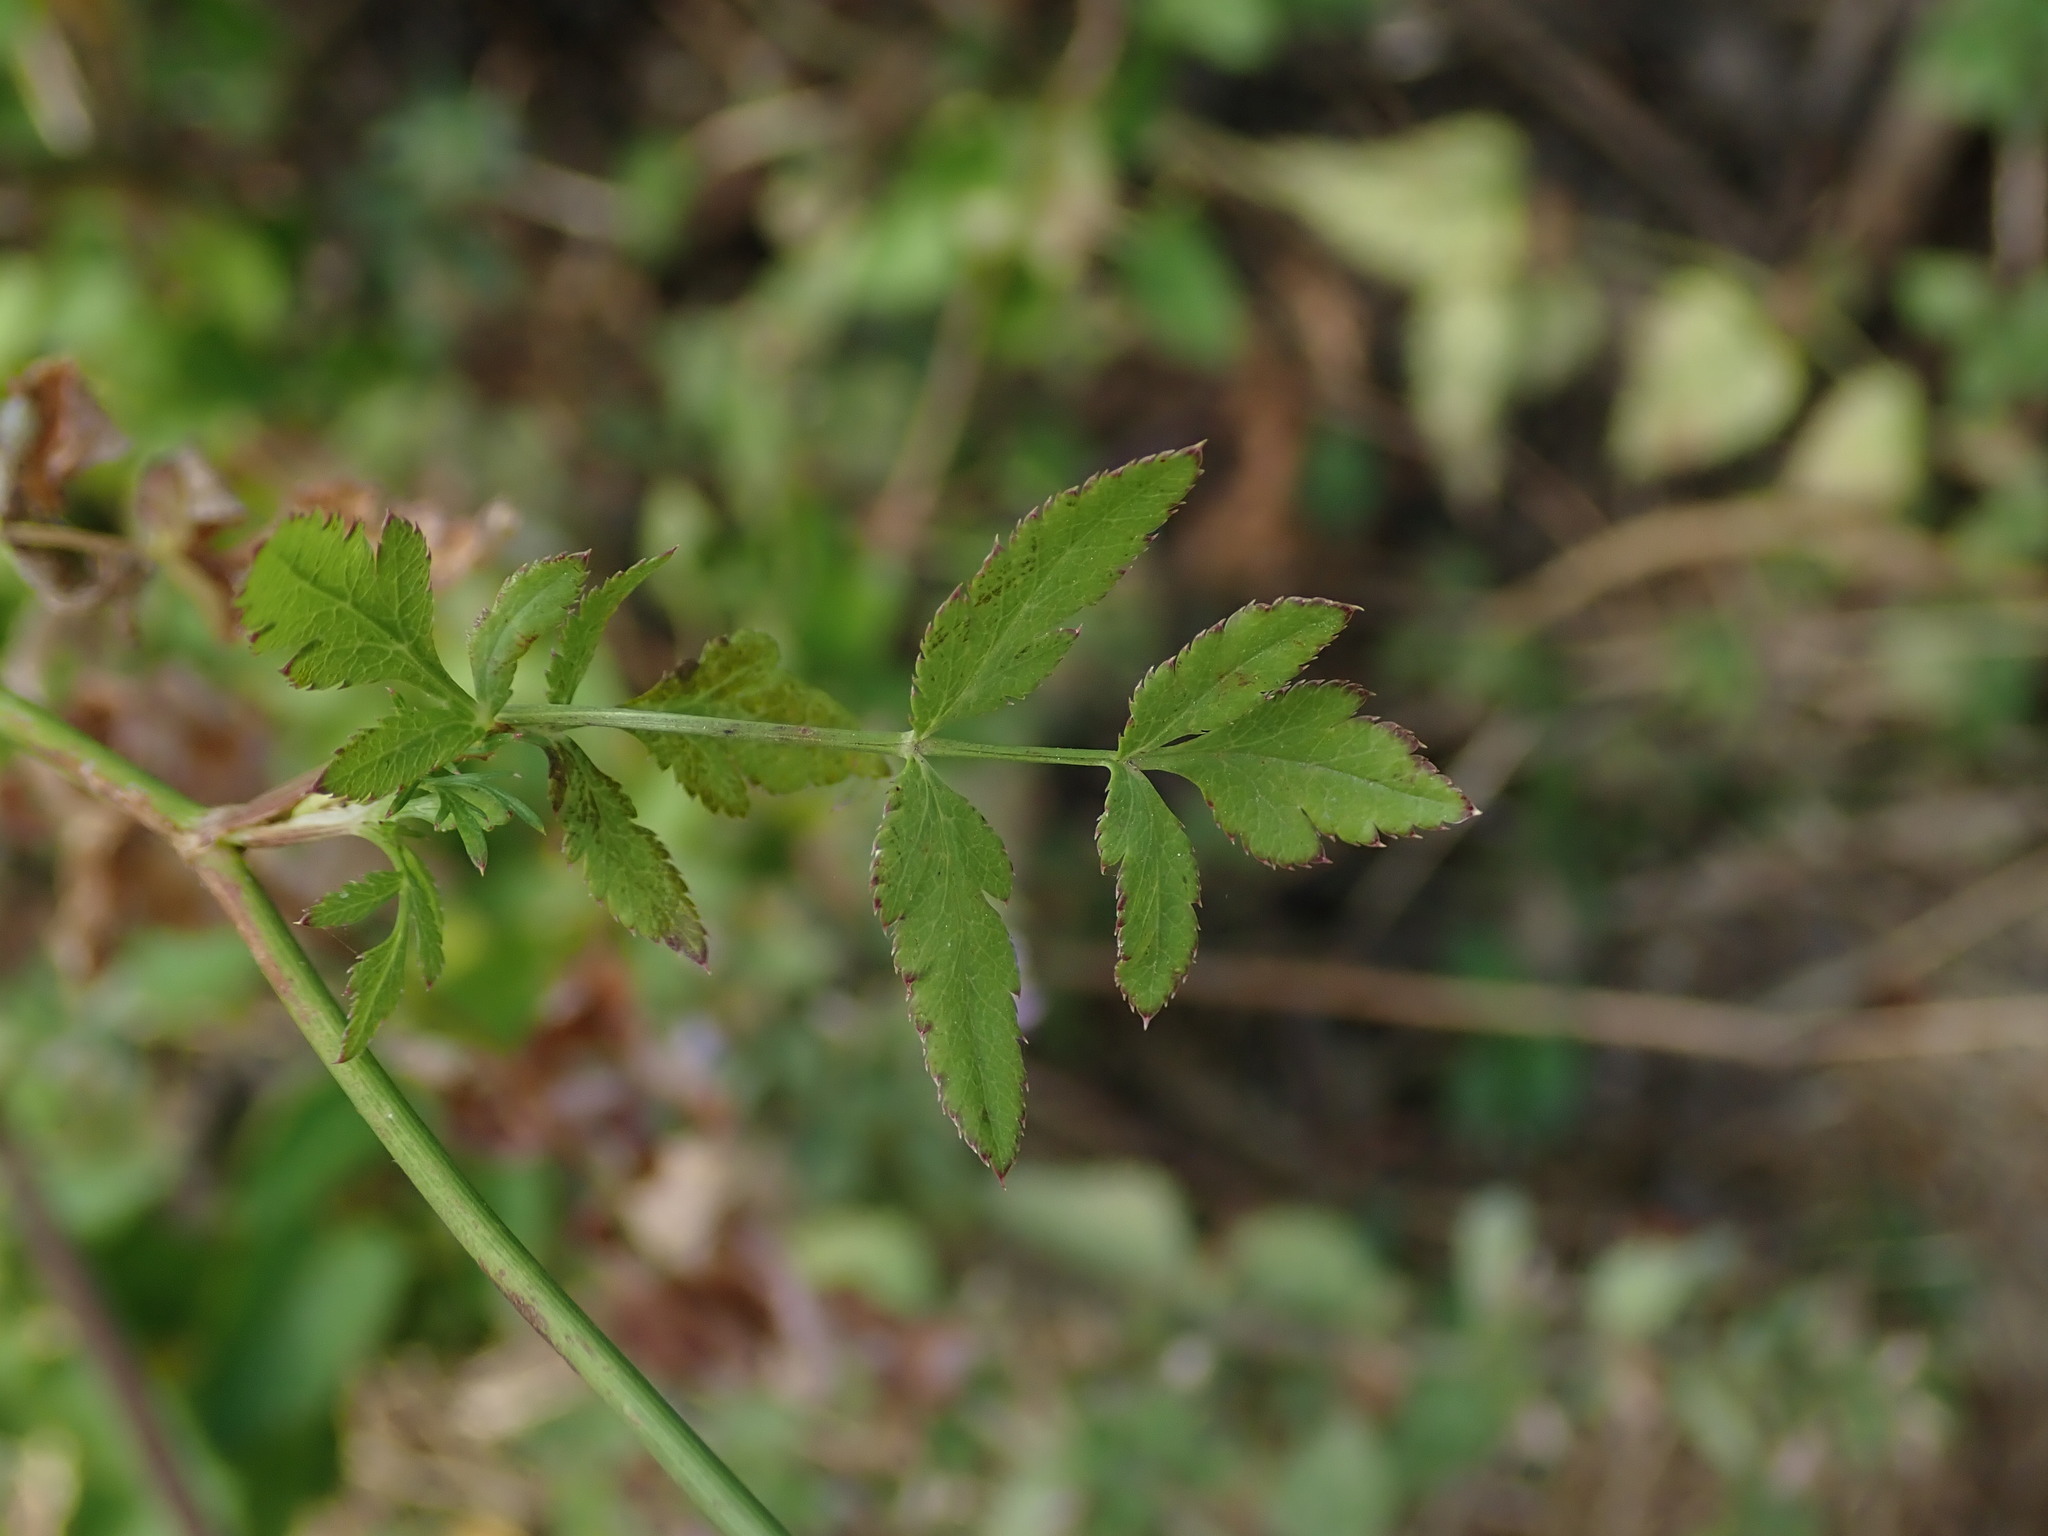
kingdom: Plantae
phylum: Tracheophyta
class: Magnoliopsida
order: Apiales
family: Apiaceae
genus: Sison
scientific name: Sison amomum
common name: Stone-parsley
